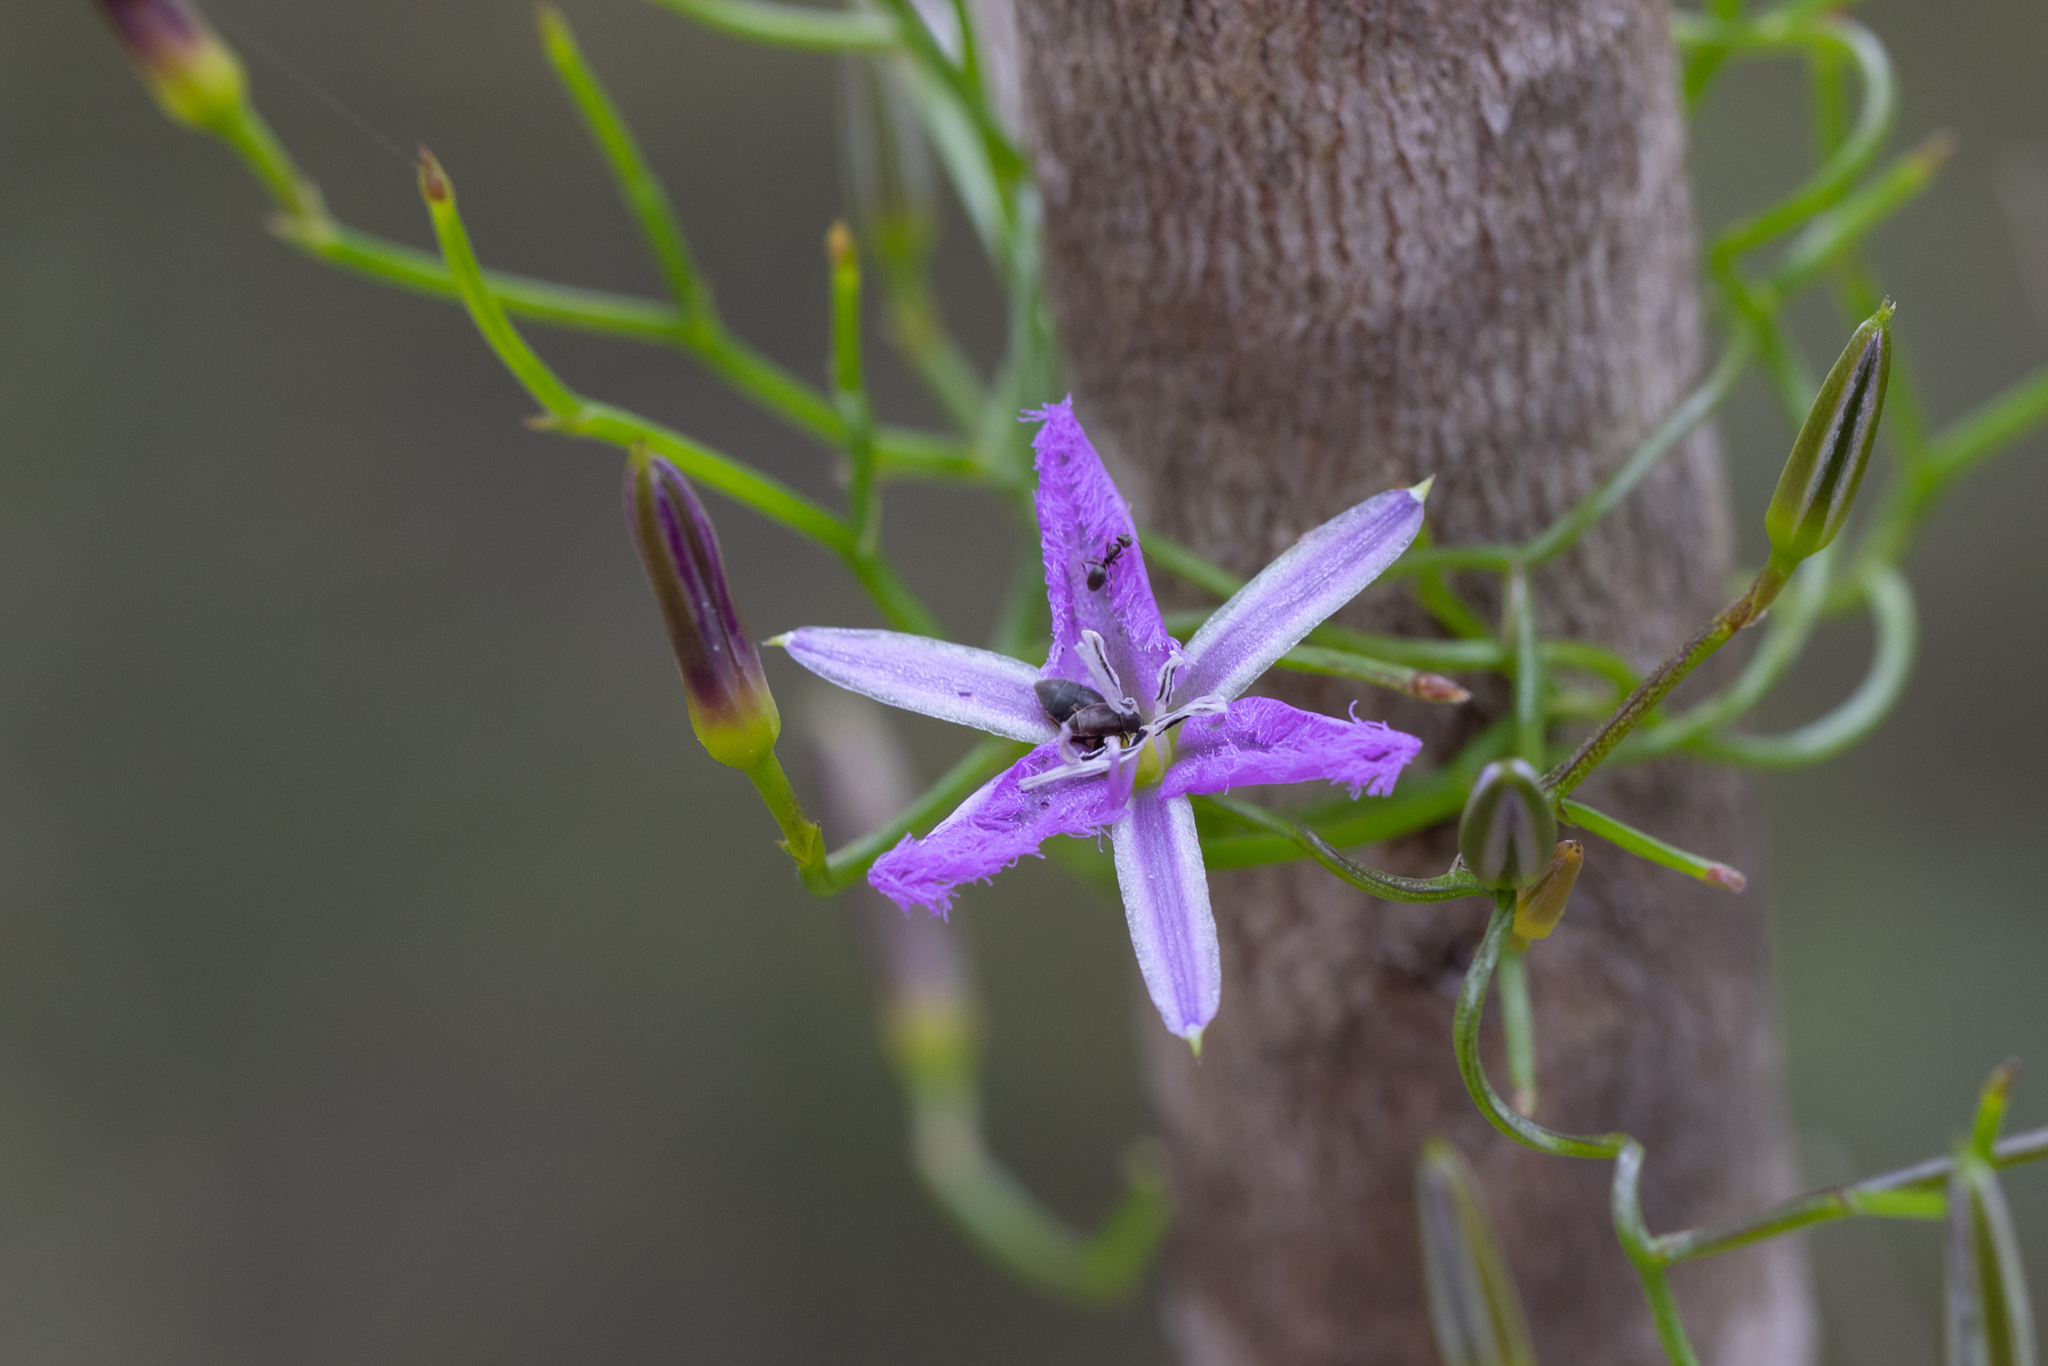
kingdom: Plantae
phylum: Tracheophyta
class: Liliopsida
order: Asparagales
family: Asparagaceae
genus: Thysanotus
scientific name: Thysanotus manglesianus
